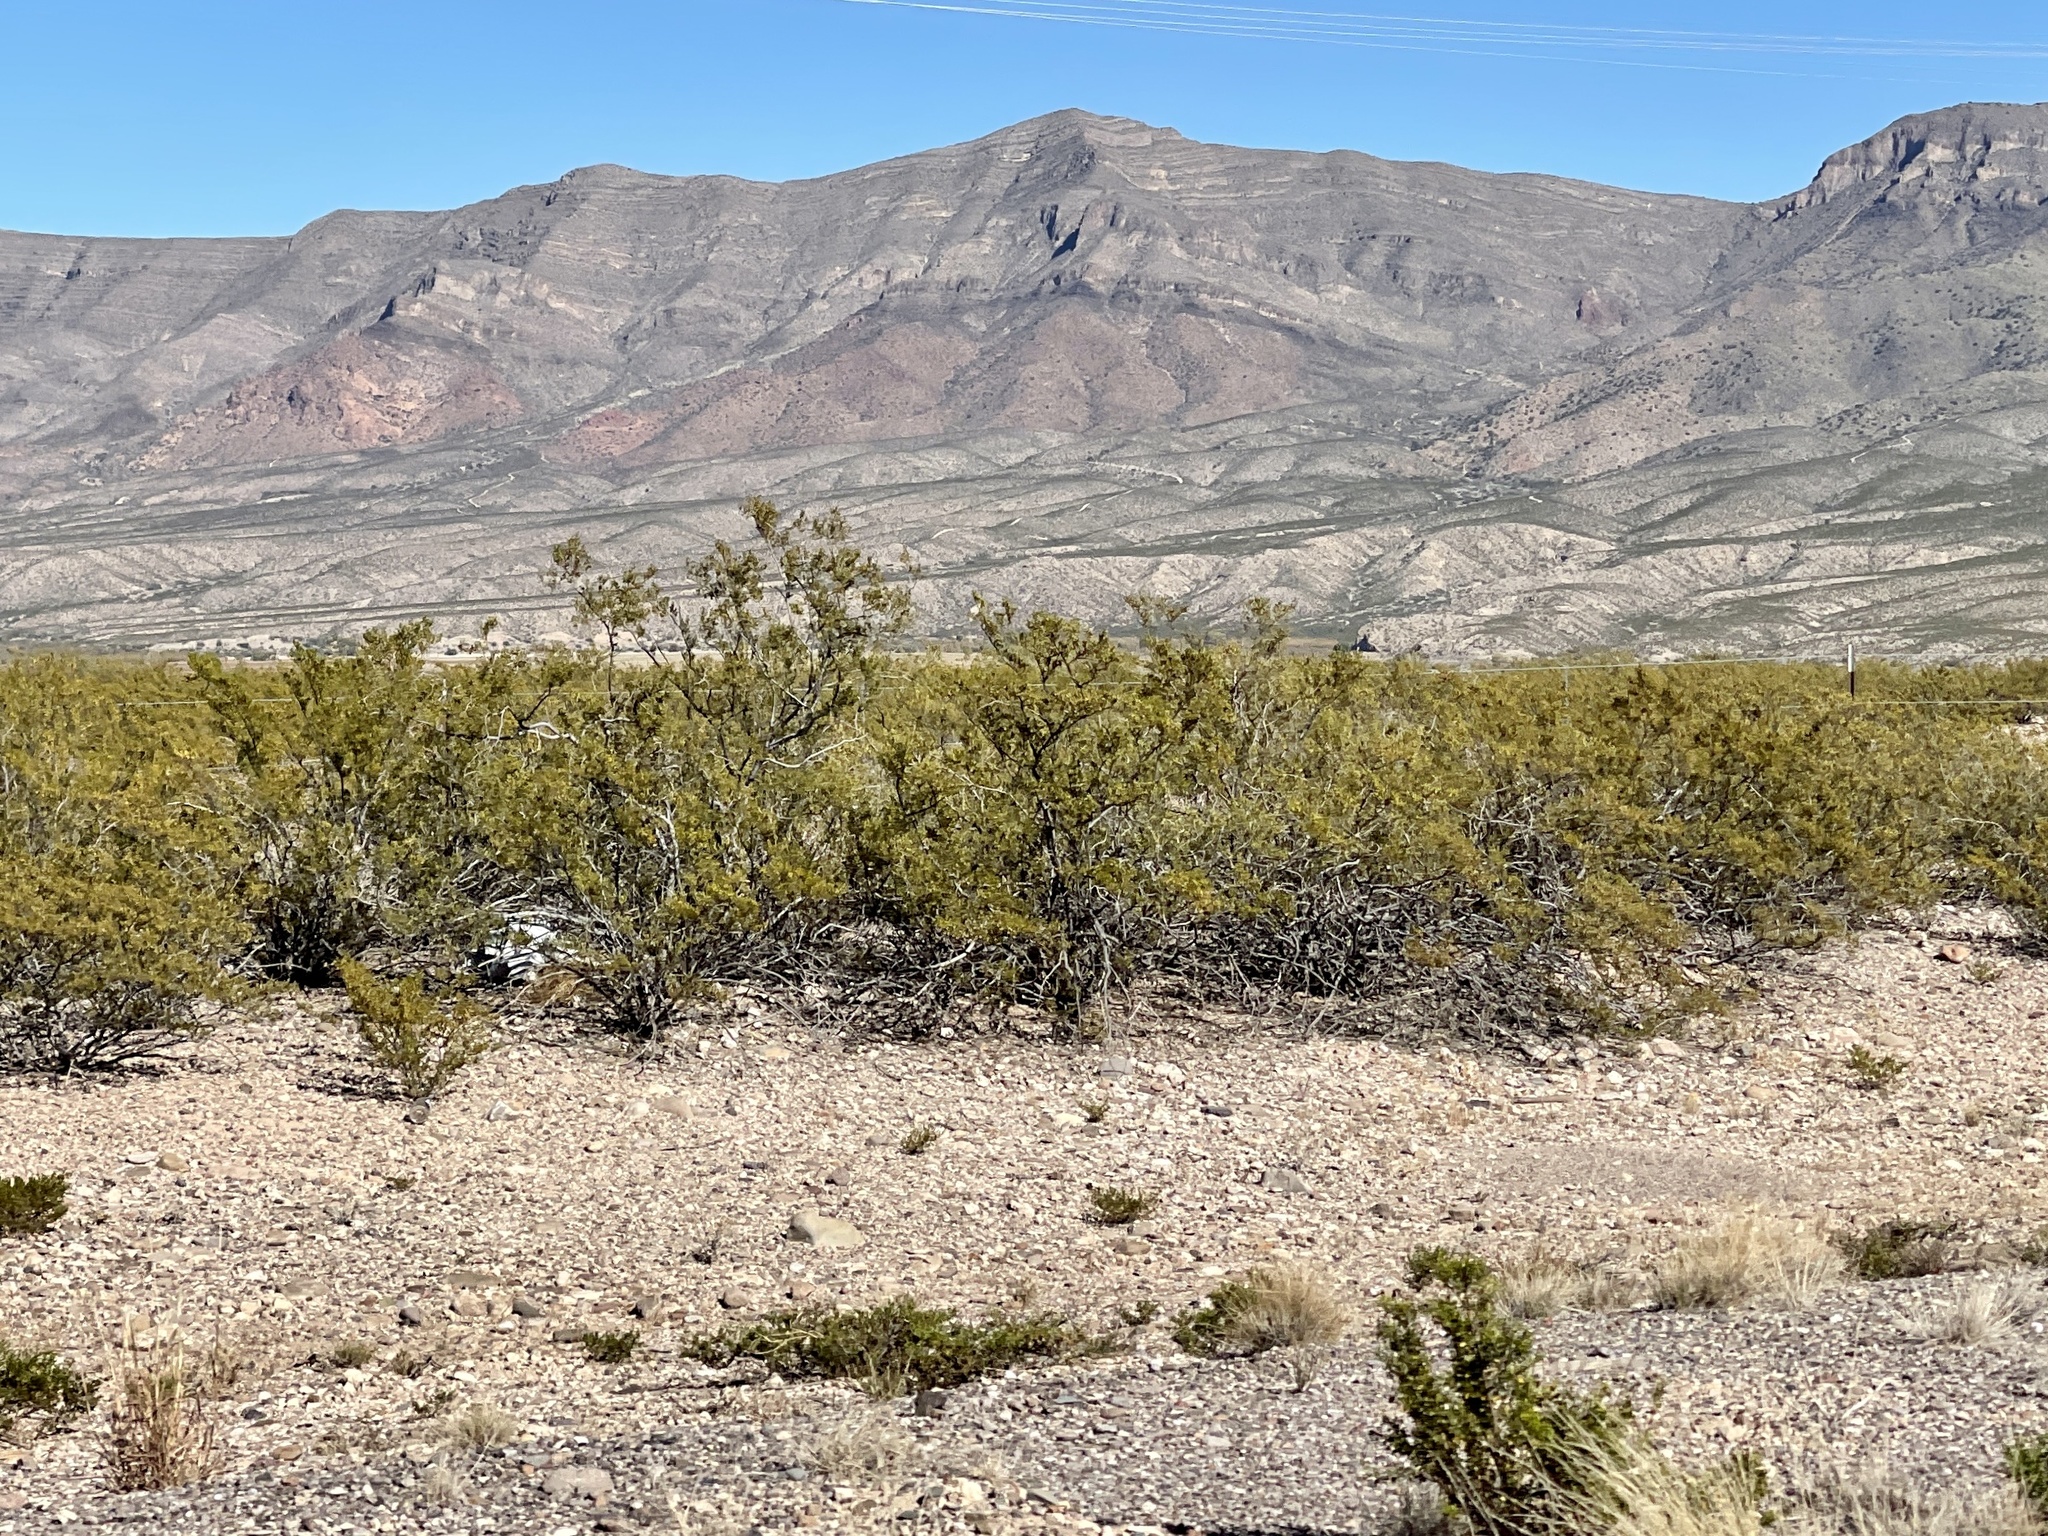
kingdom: Plantae
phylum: Tracheophyta
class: Magnoliopsida
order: Zygophyllales
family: Zygophyllaceae
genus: Larrea
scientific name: Larrea tridentata
